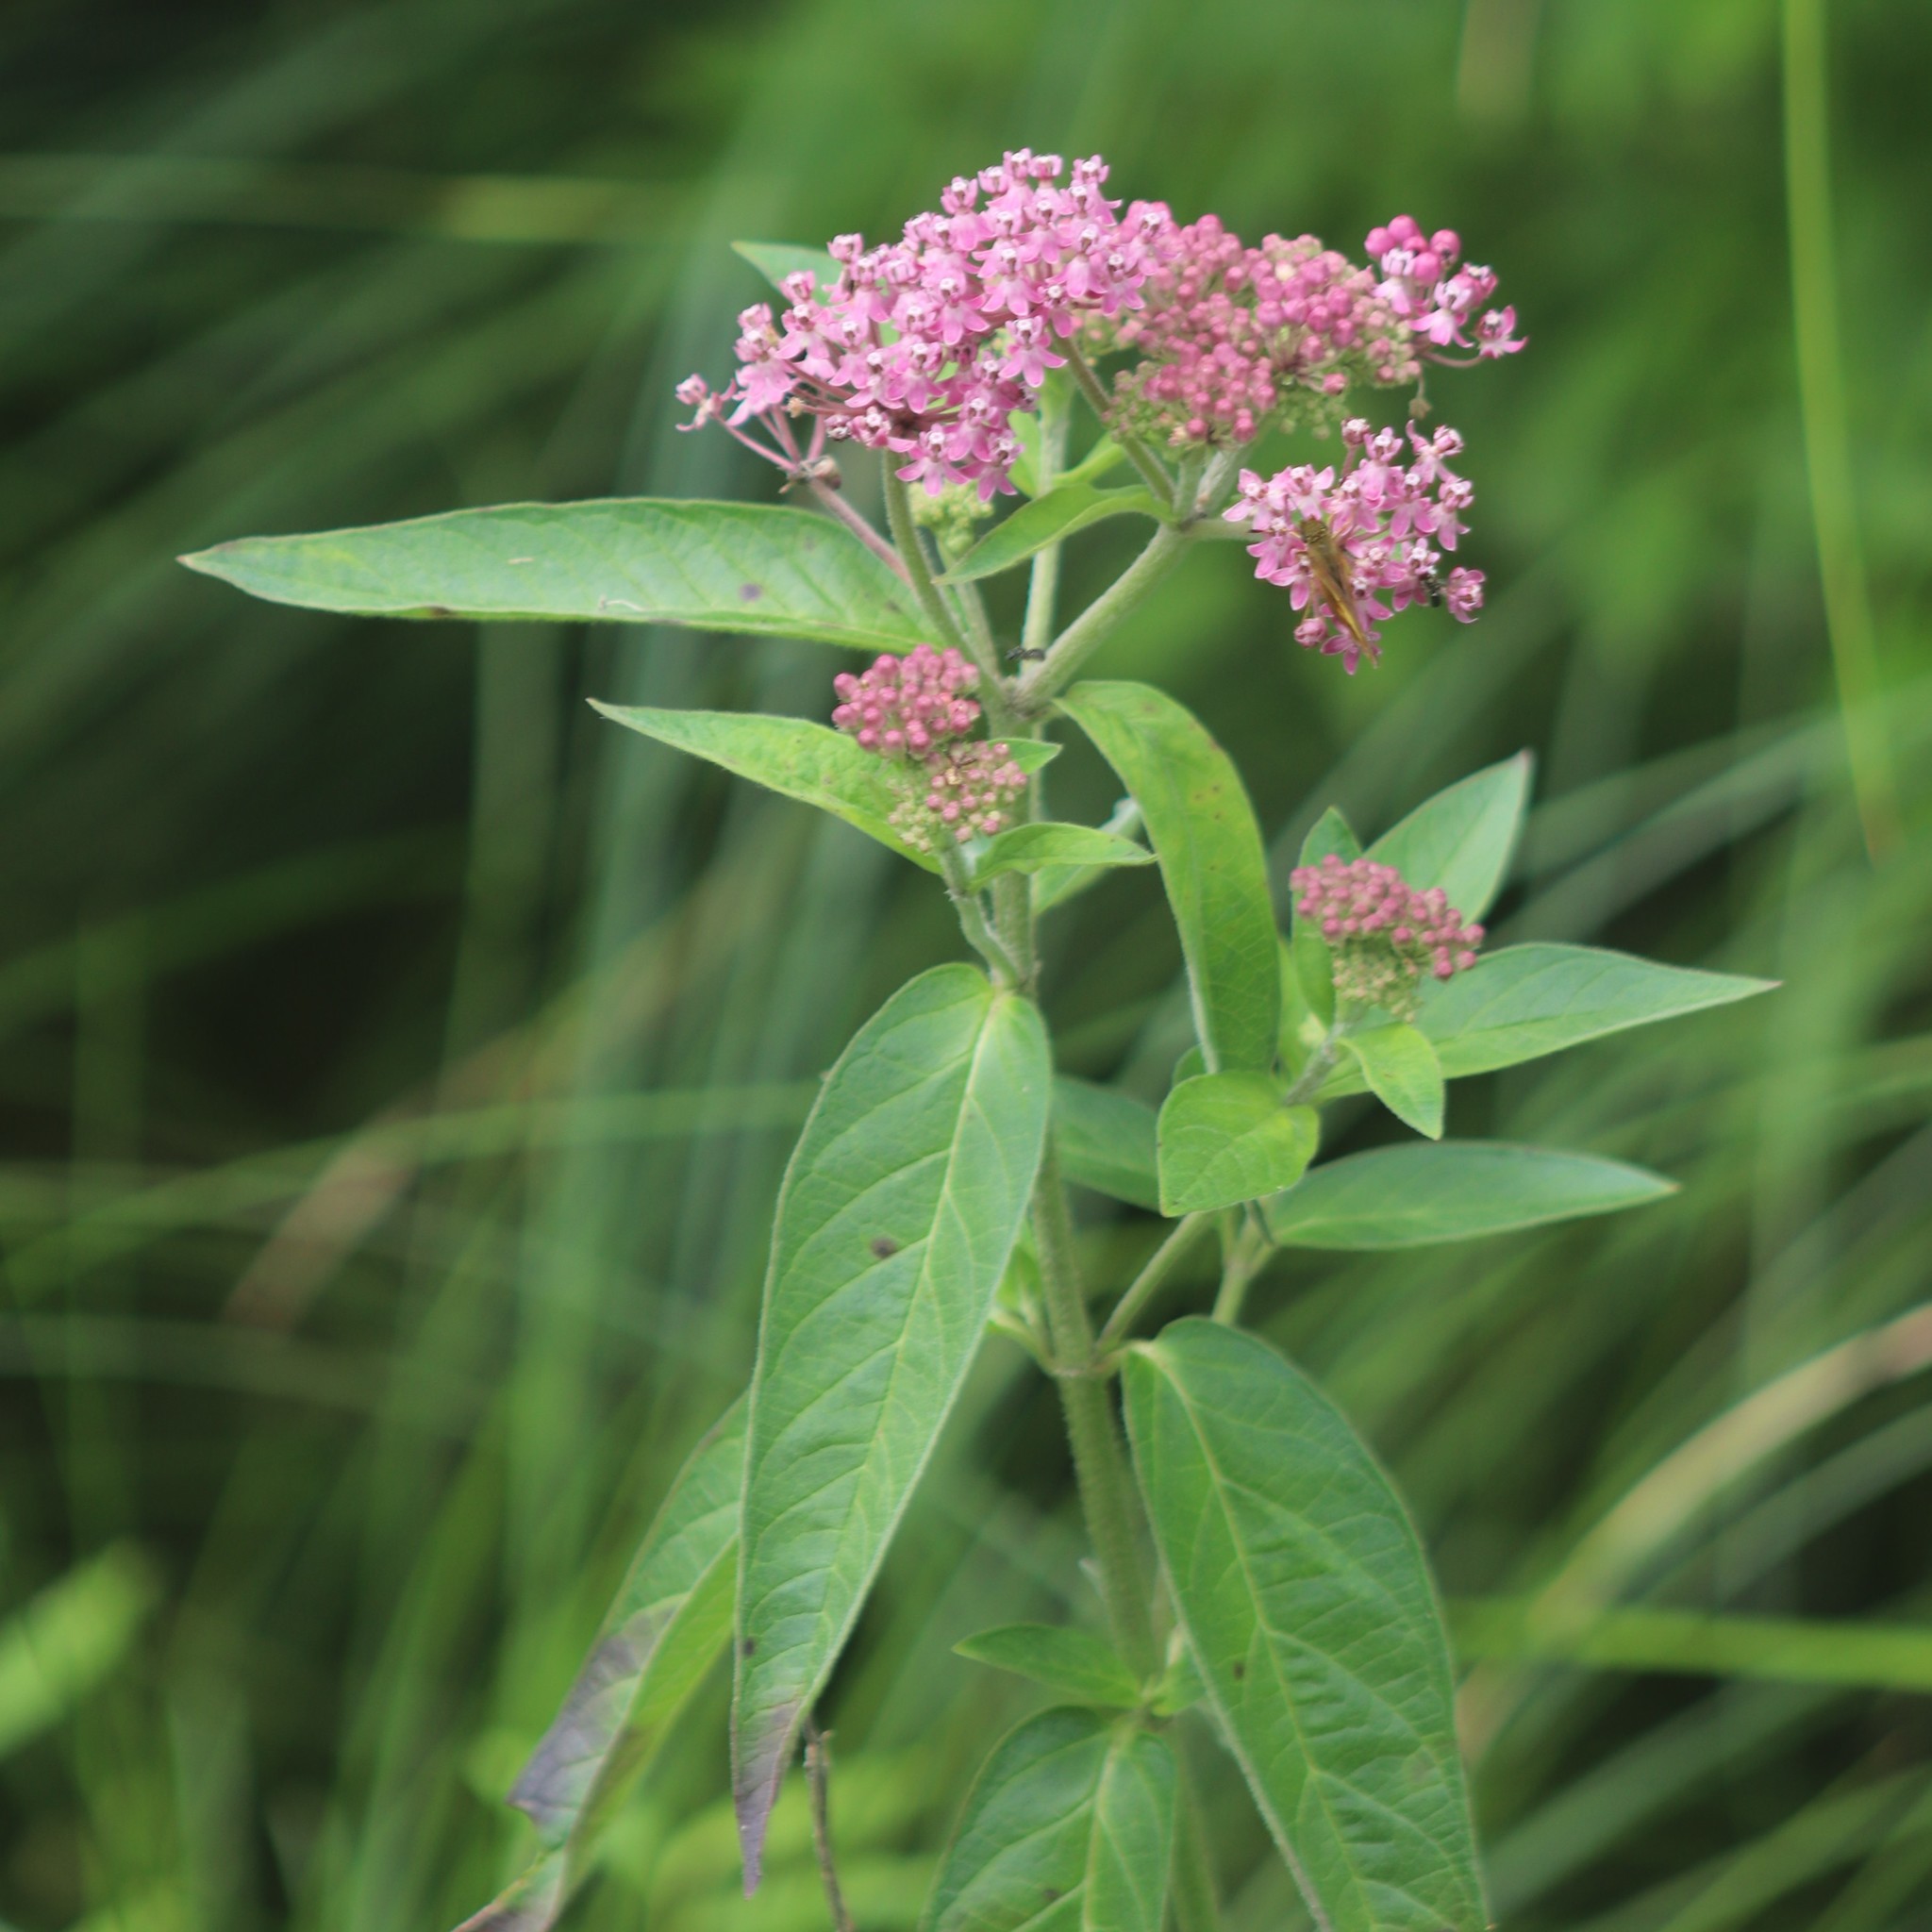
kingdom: Plantae
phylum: Tracheophyta
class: Magnoliopsida
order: Gentianales
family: Apocynaceae
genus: Asclepias
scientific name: Asclepias incarnata
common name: Swamp milkweed
